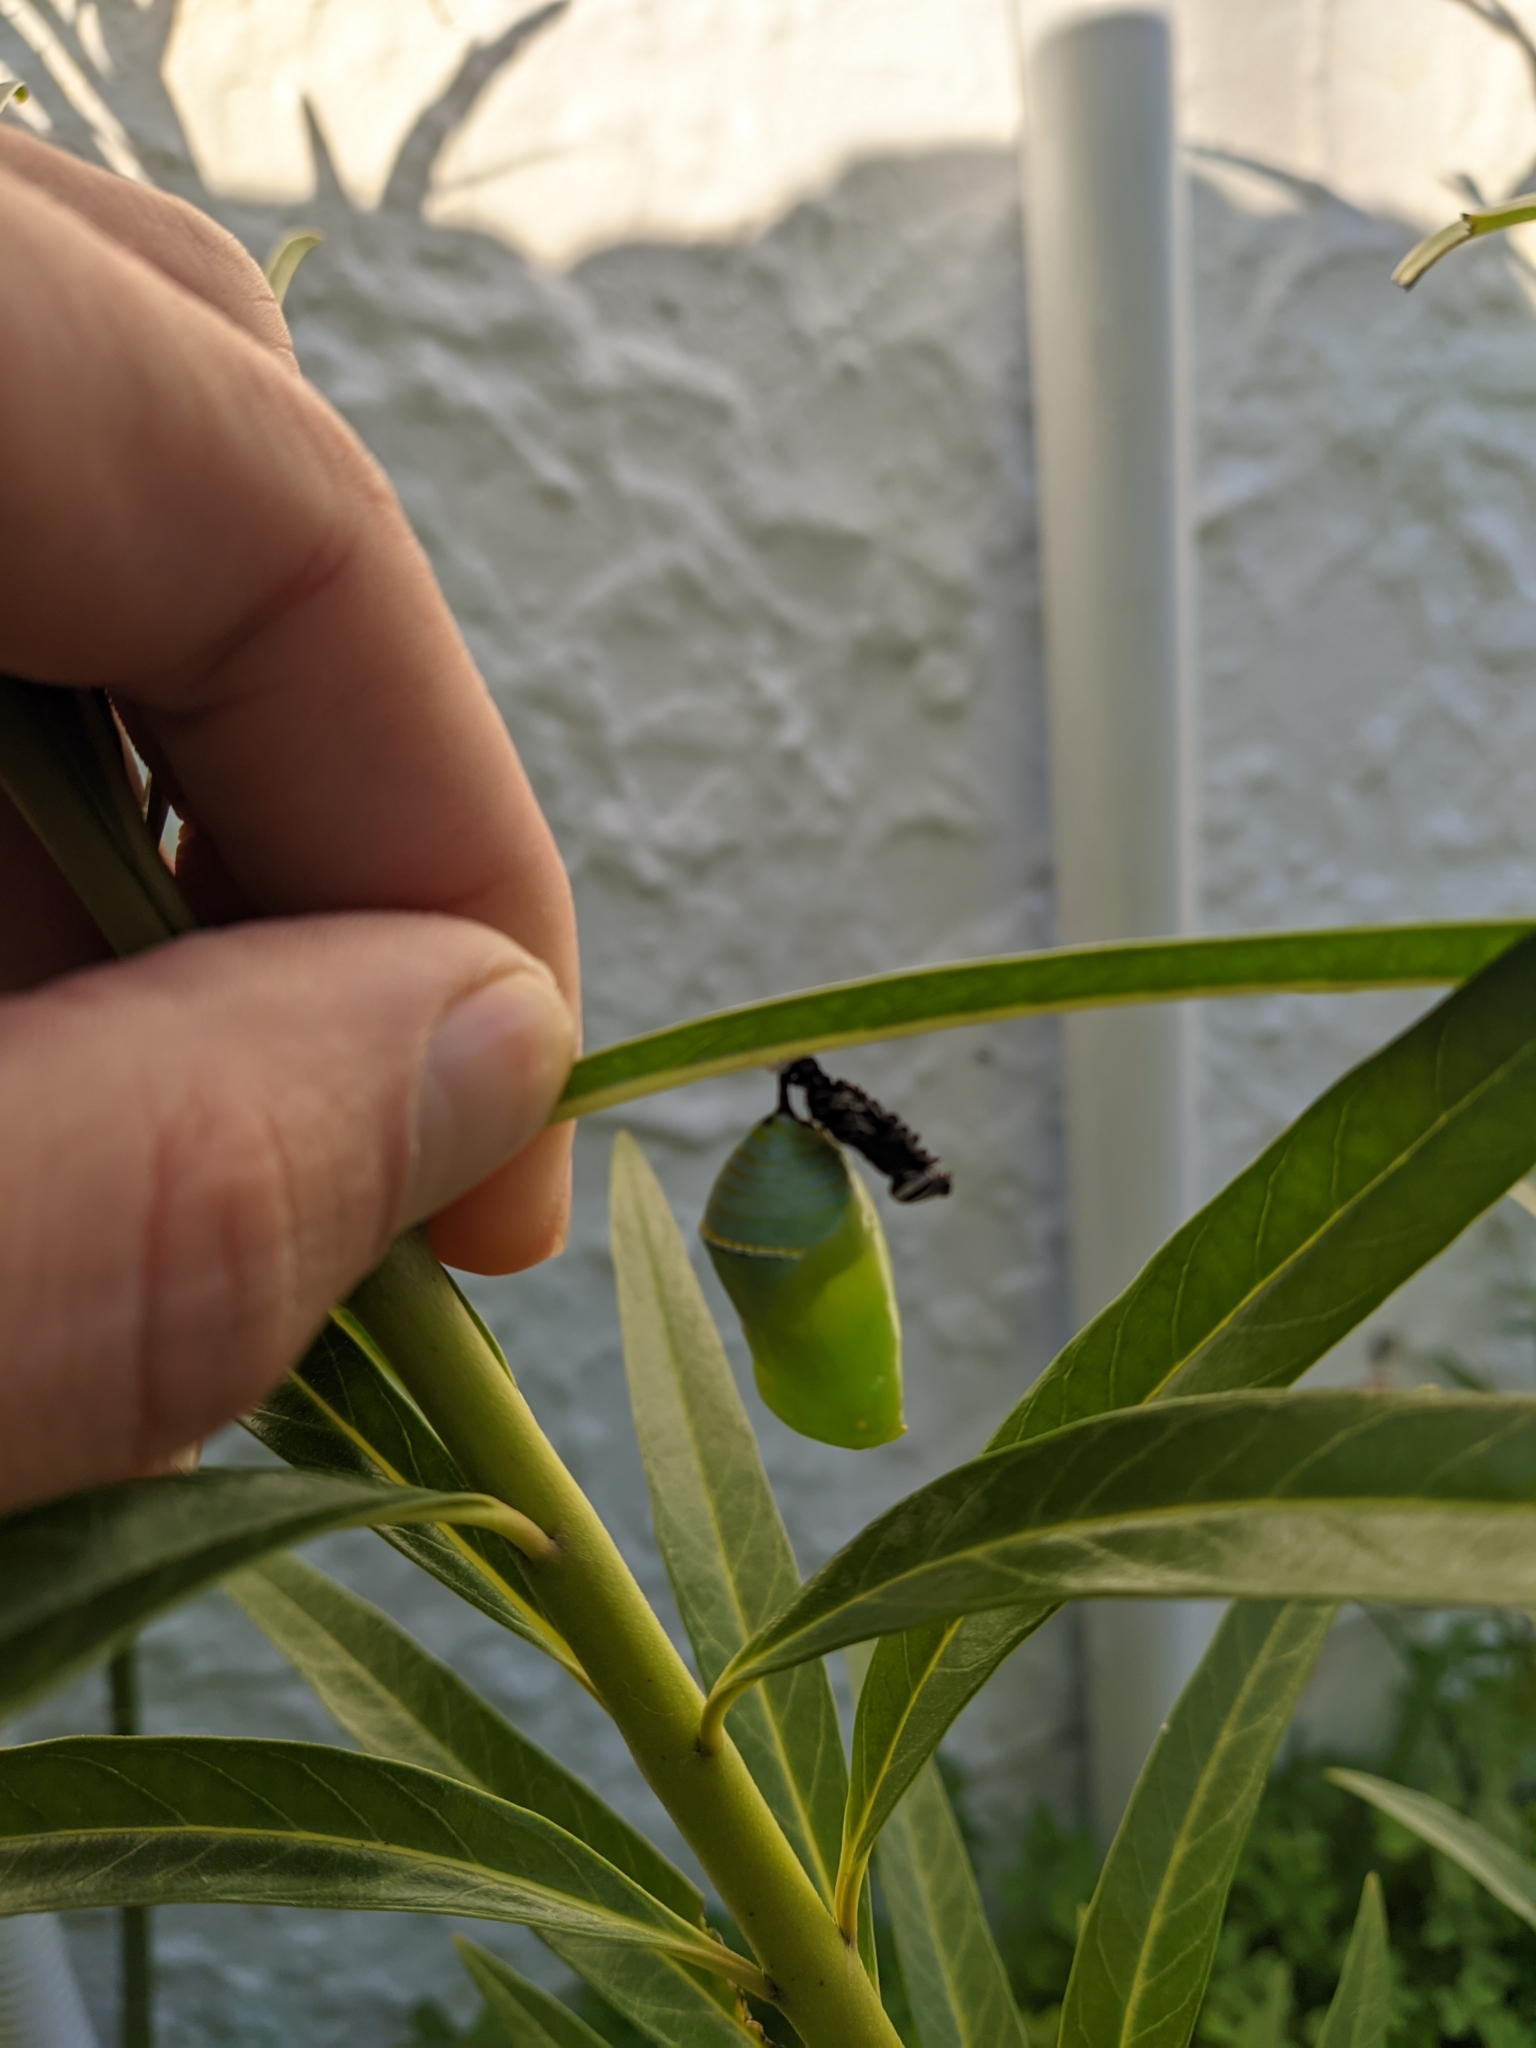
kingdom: Animalia
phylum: Arthropoda
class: Insecta
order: Lepidoptera
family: Nymphalidae
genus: Danaus
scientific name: Danaus plexippus
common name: Monarch
